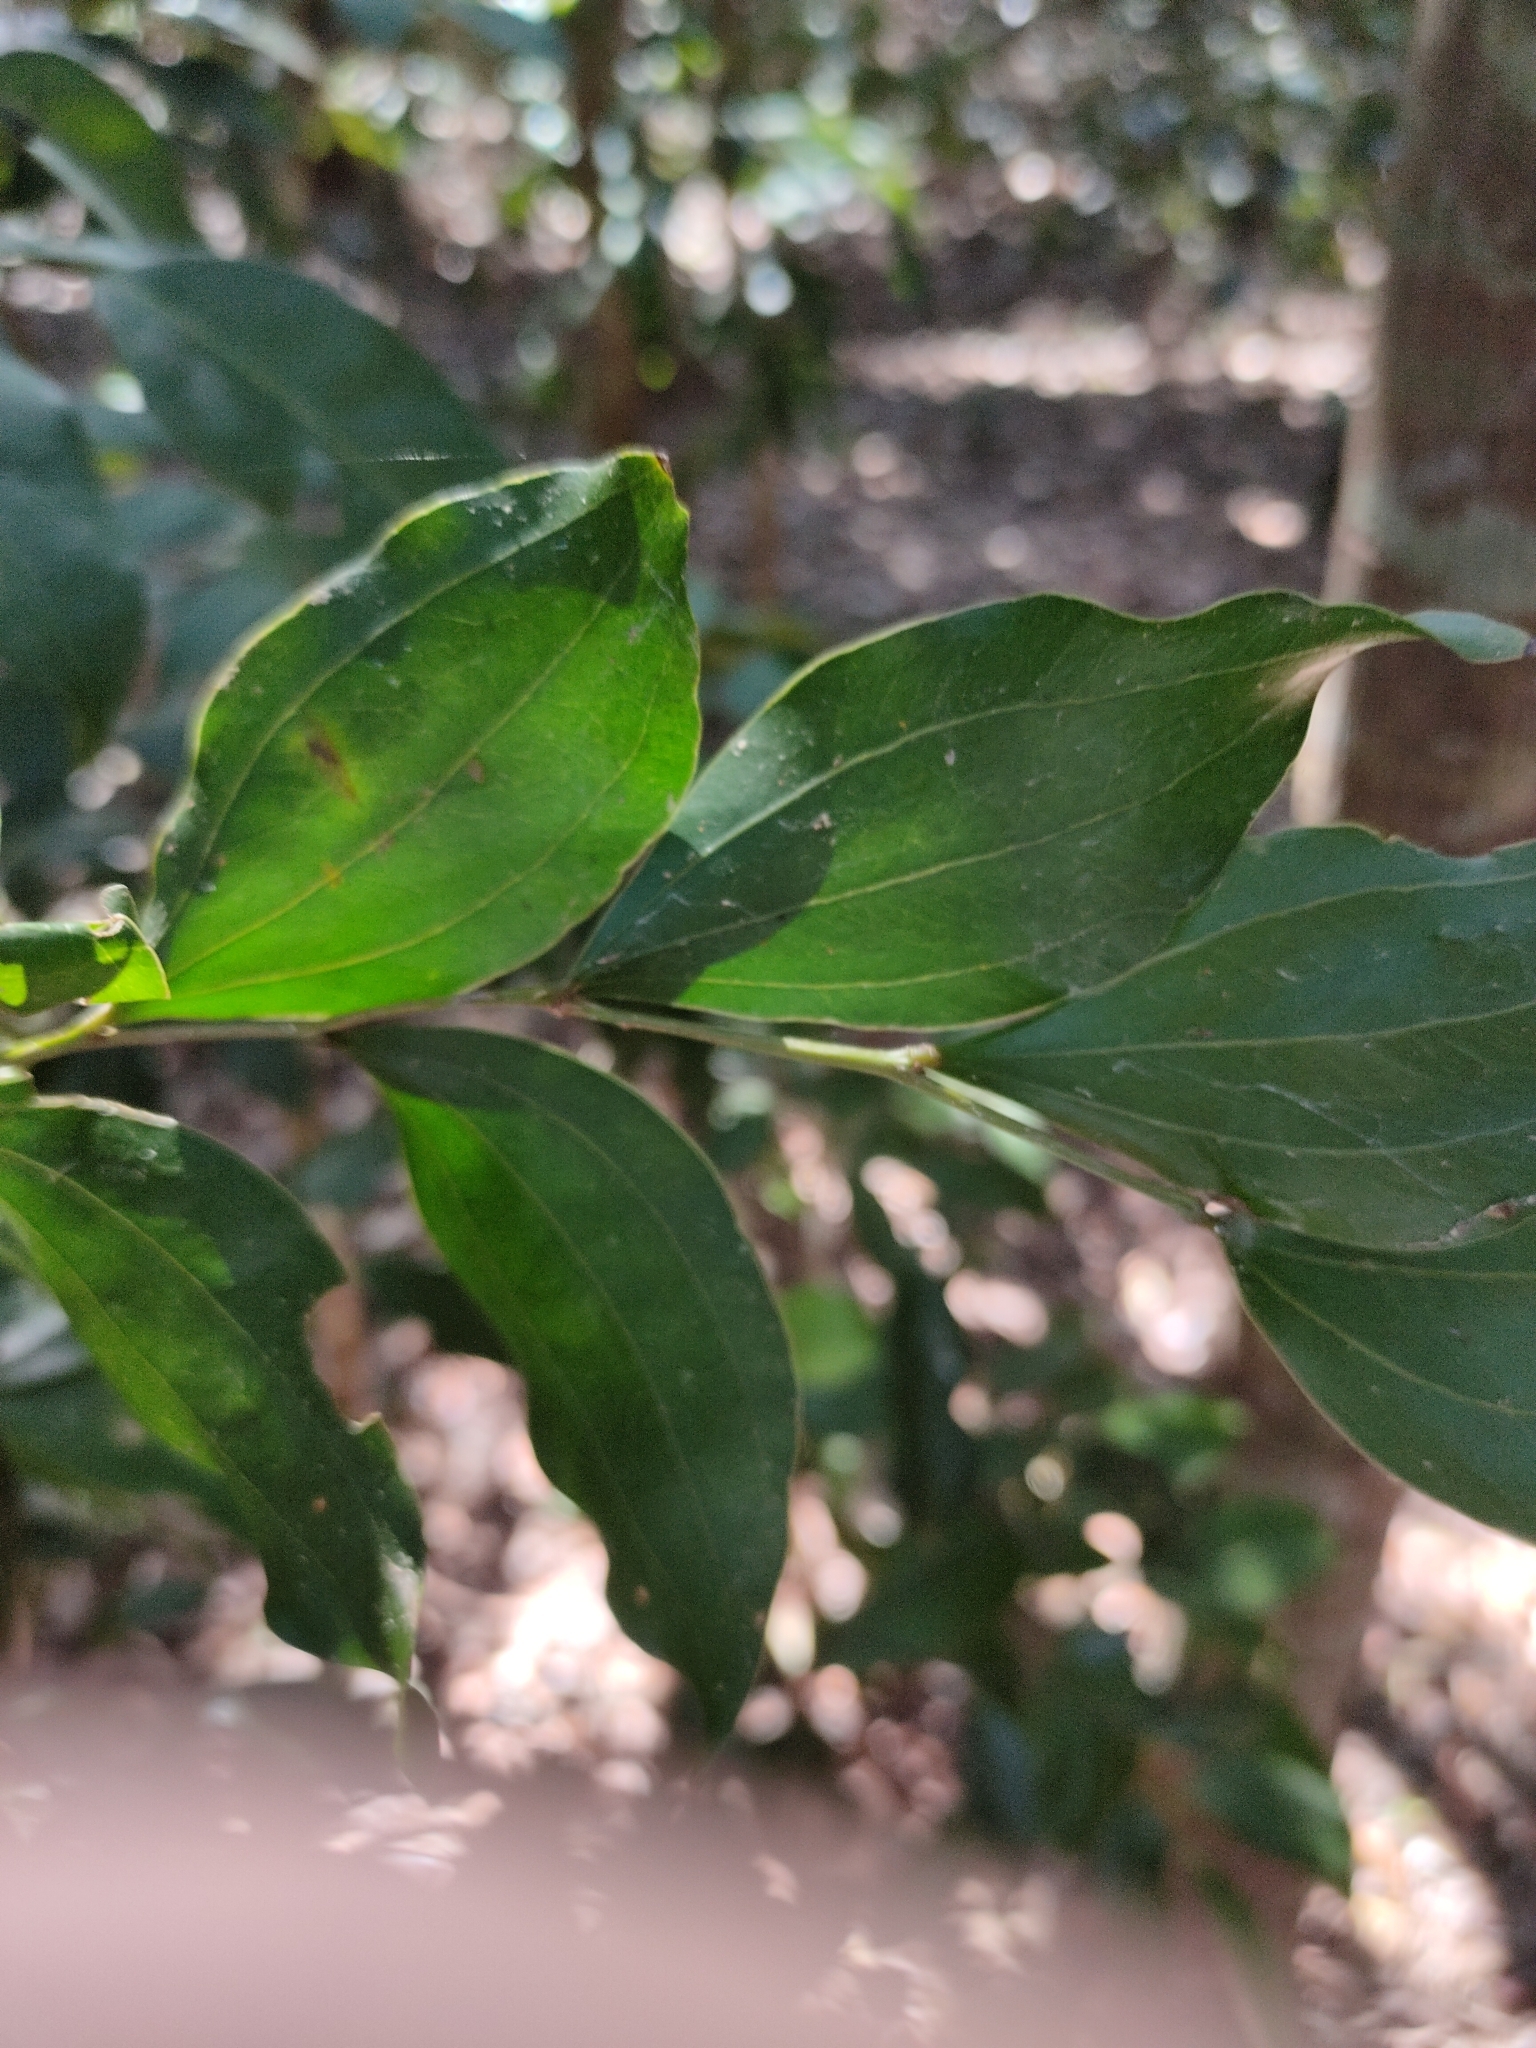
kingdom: Plantae
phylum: Tracheophyta
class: Magnoliopsida
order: Fabales
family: Fabaceae
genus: Acacia
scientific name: Acacia bakeri
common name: Scrub wattle
